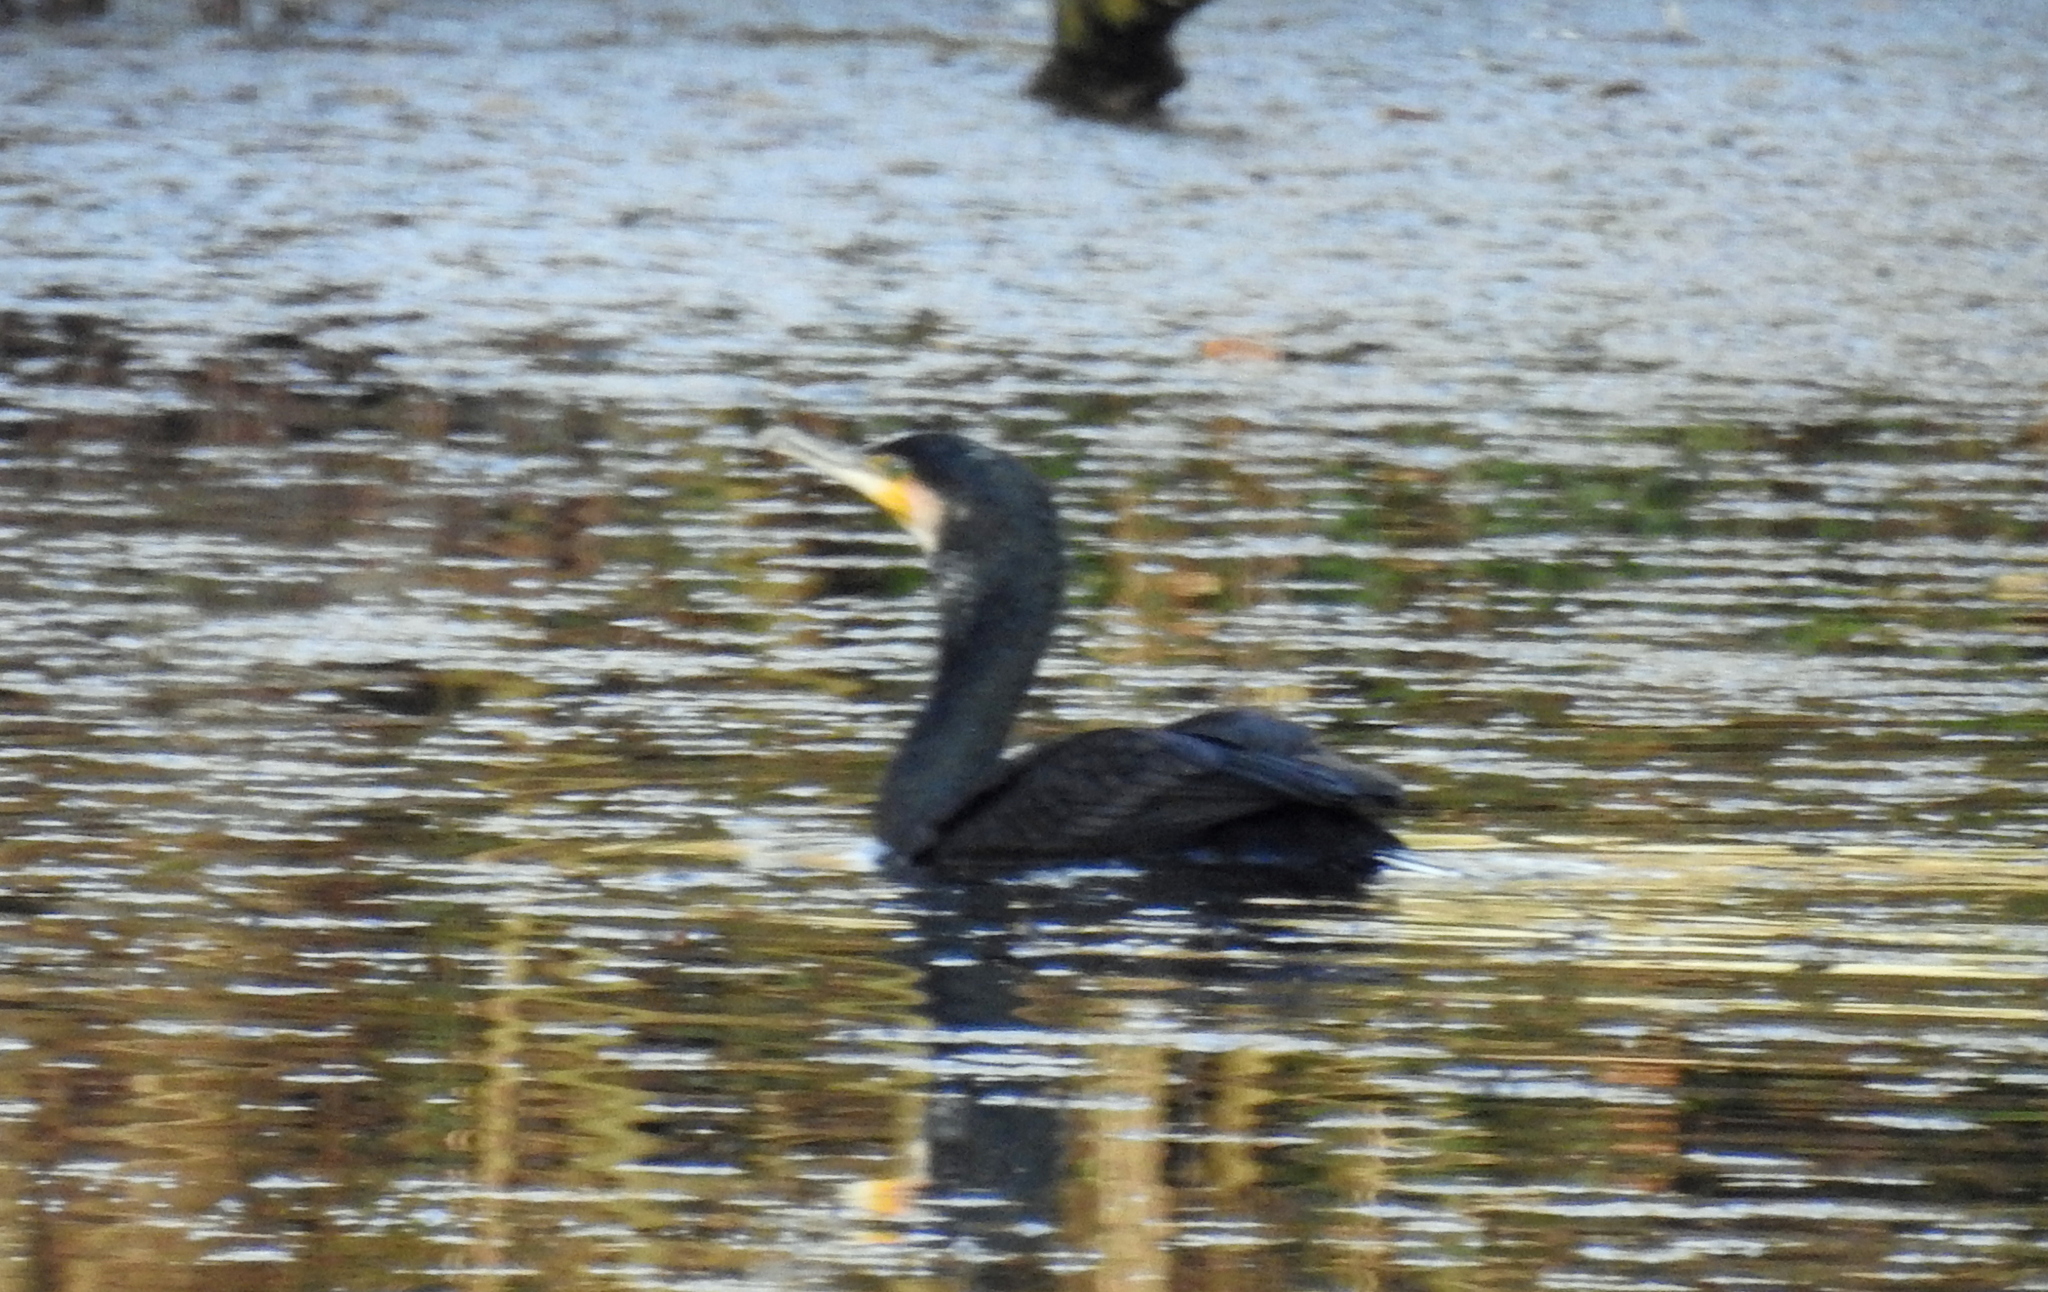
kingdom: Animalia
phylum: Chordata
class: Aves
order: Suliformes
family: Phalacrocoracidae
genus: Phalacrocorax
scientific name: Phalacrocorax carbo
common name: Great cormorant
